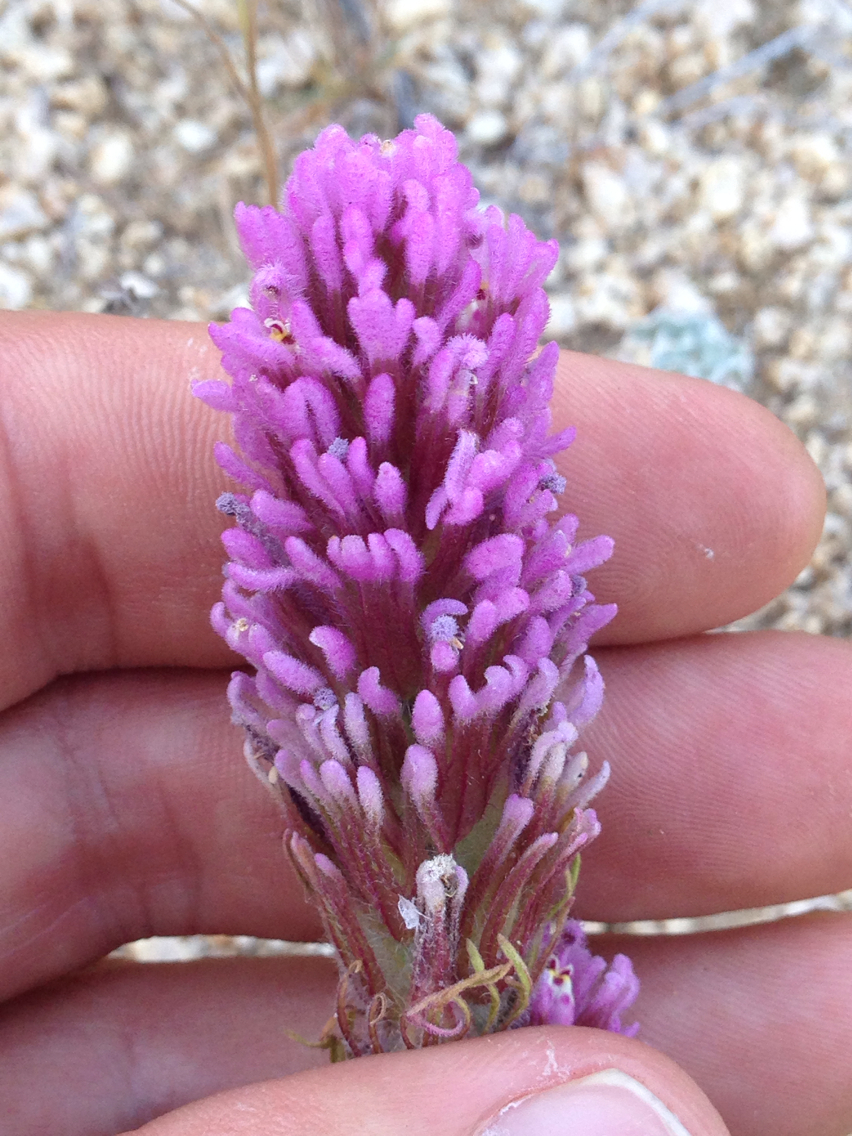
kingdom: Plantae
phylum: Tracheophyta
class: Magnoliopsida
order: Lamiales
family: Orobanchaceae
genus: Castilleja
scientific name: Castilleja exserta
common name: Purple owl-clover
